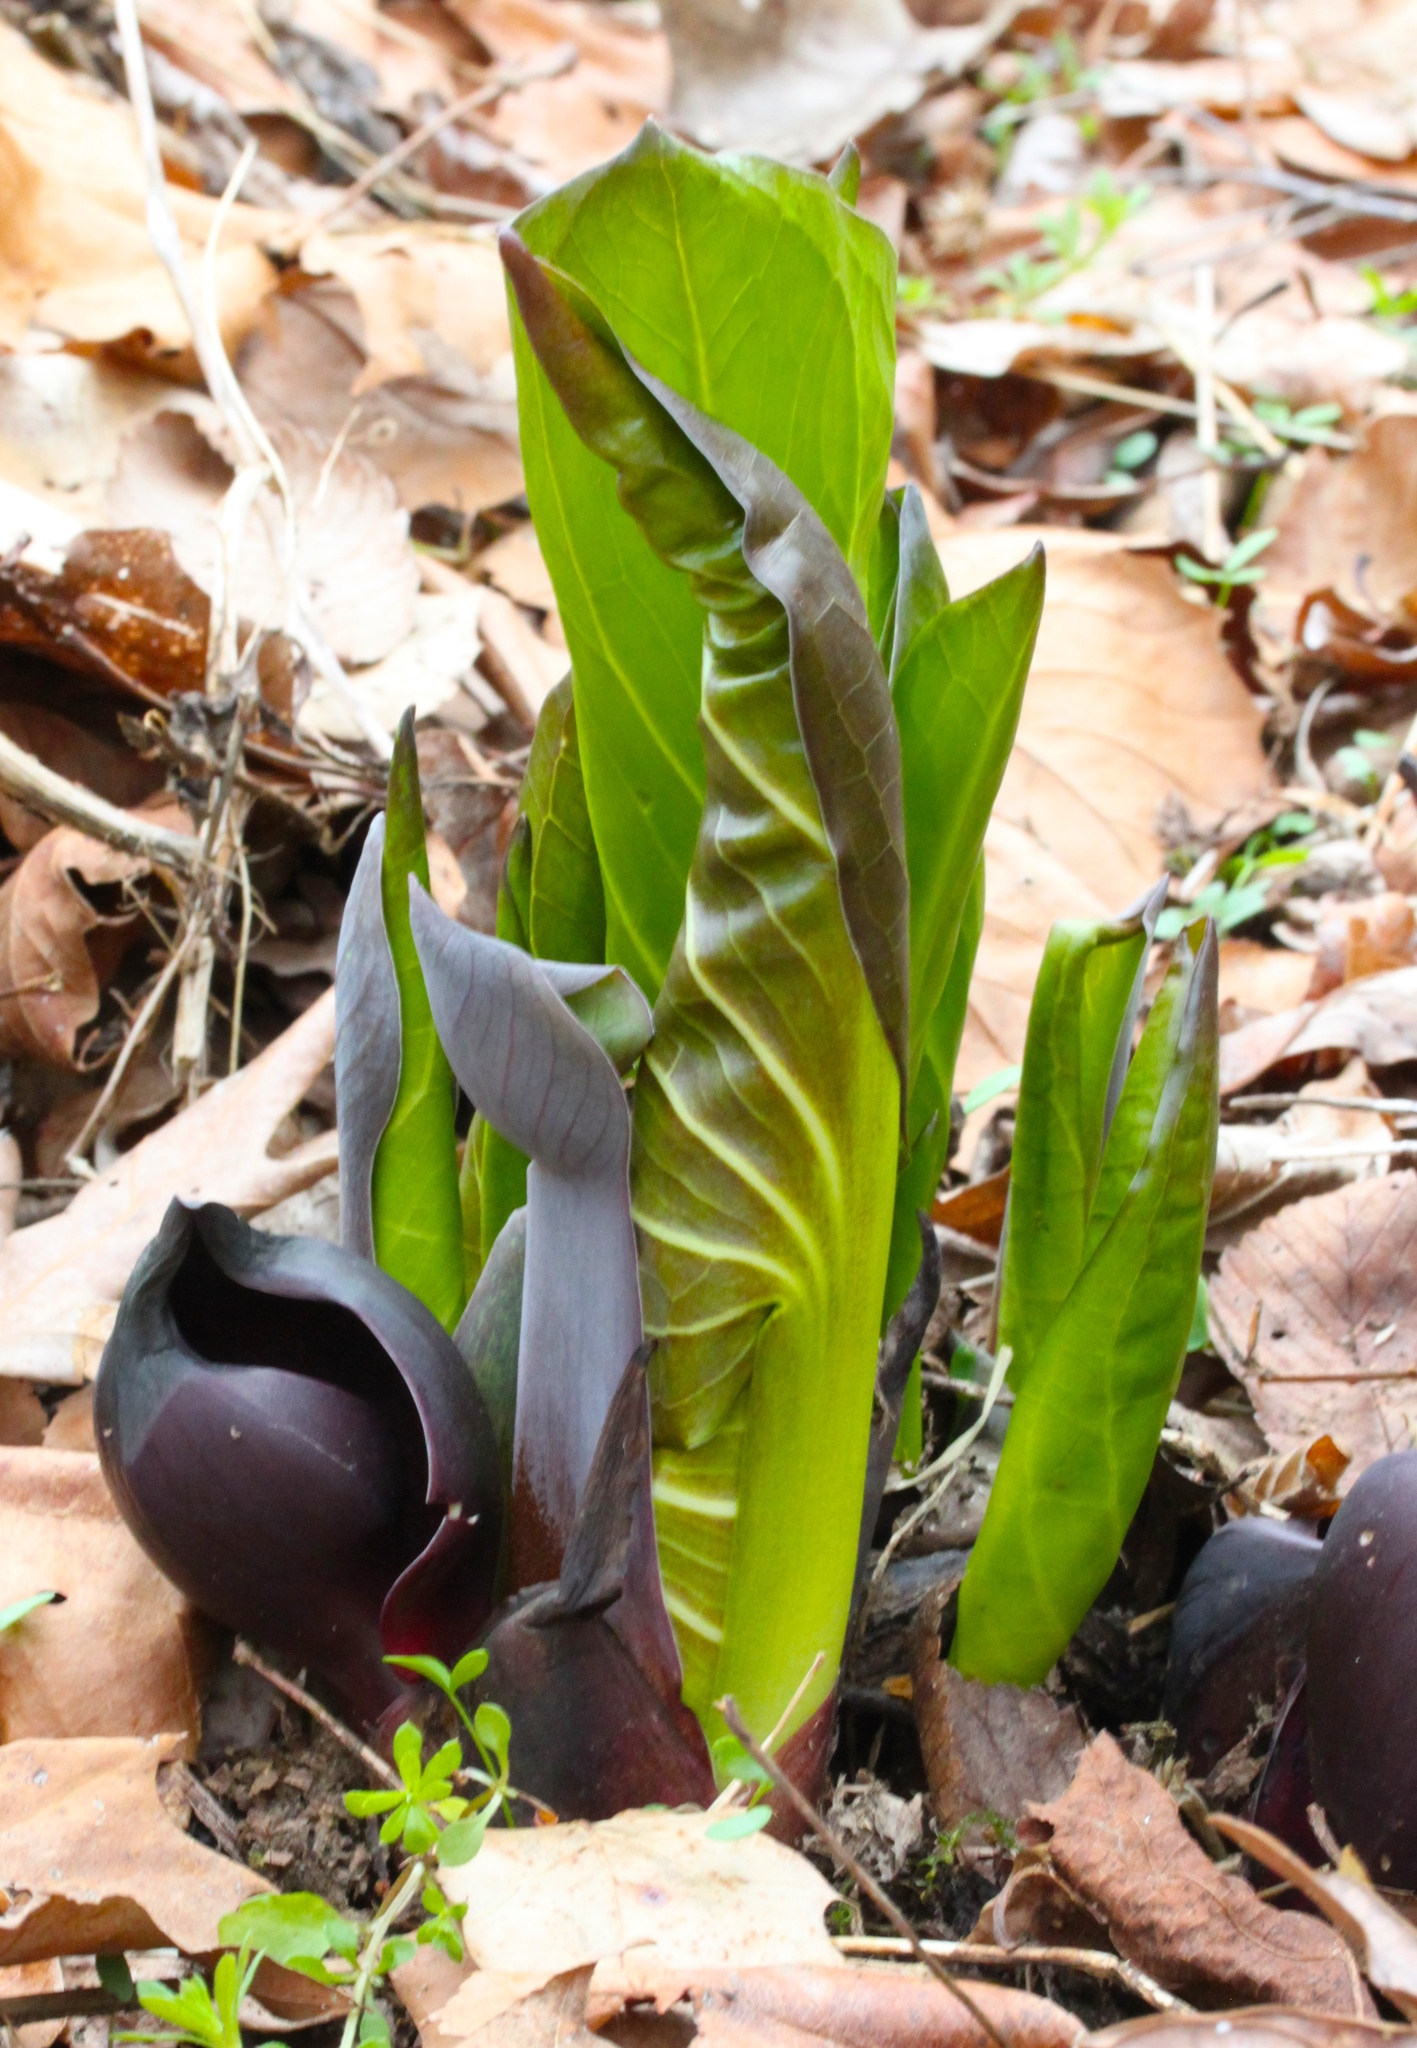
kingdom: Plantae
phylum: Tracheophyta
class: Liliopsida
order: Alismatales
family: Araceae
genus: Symplocarpus
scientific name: Symplocarpus foetidus
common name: Eastern skunk cabbage
